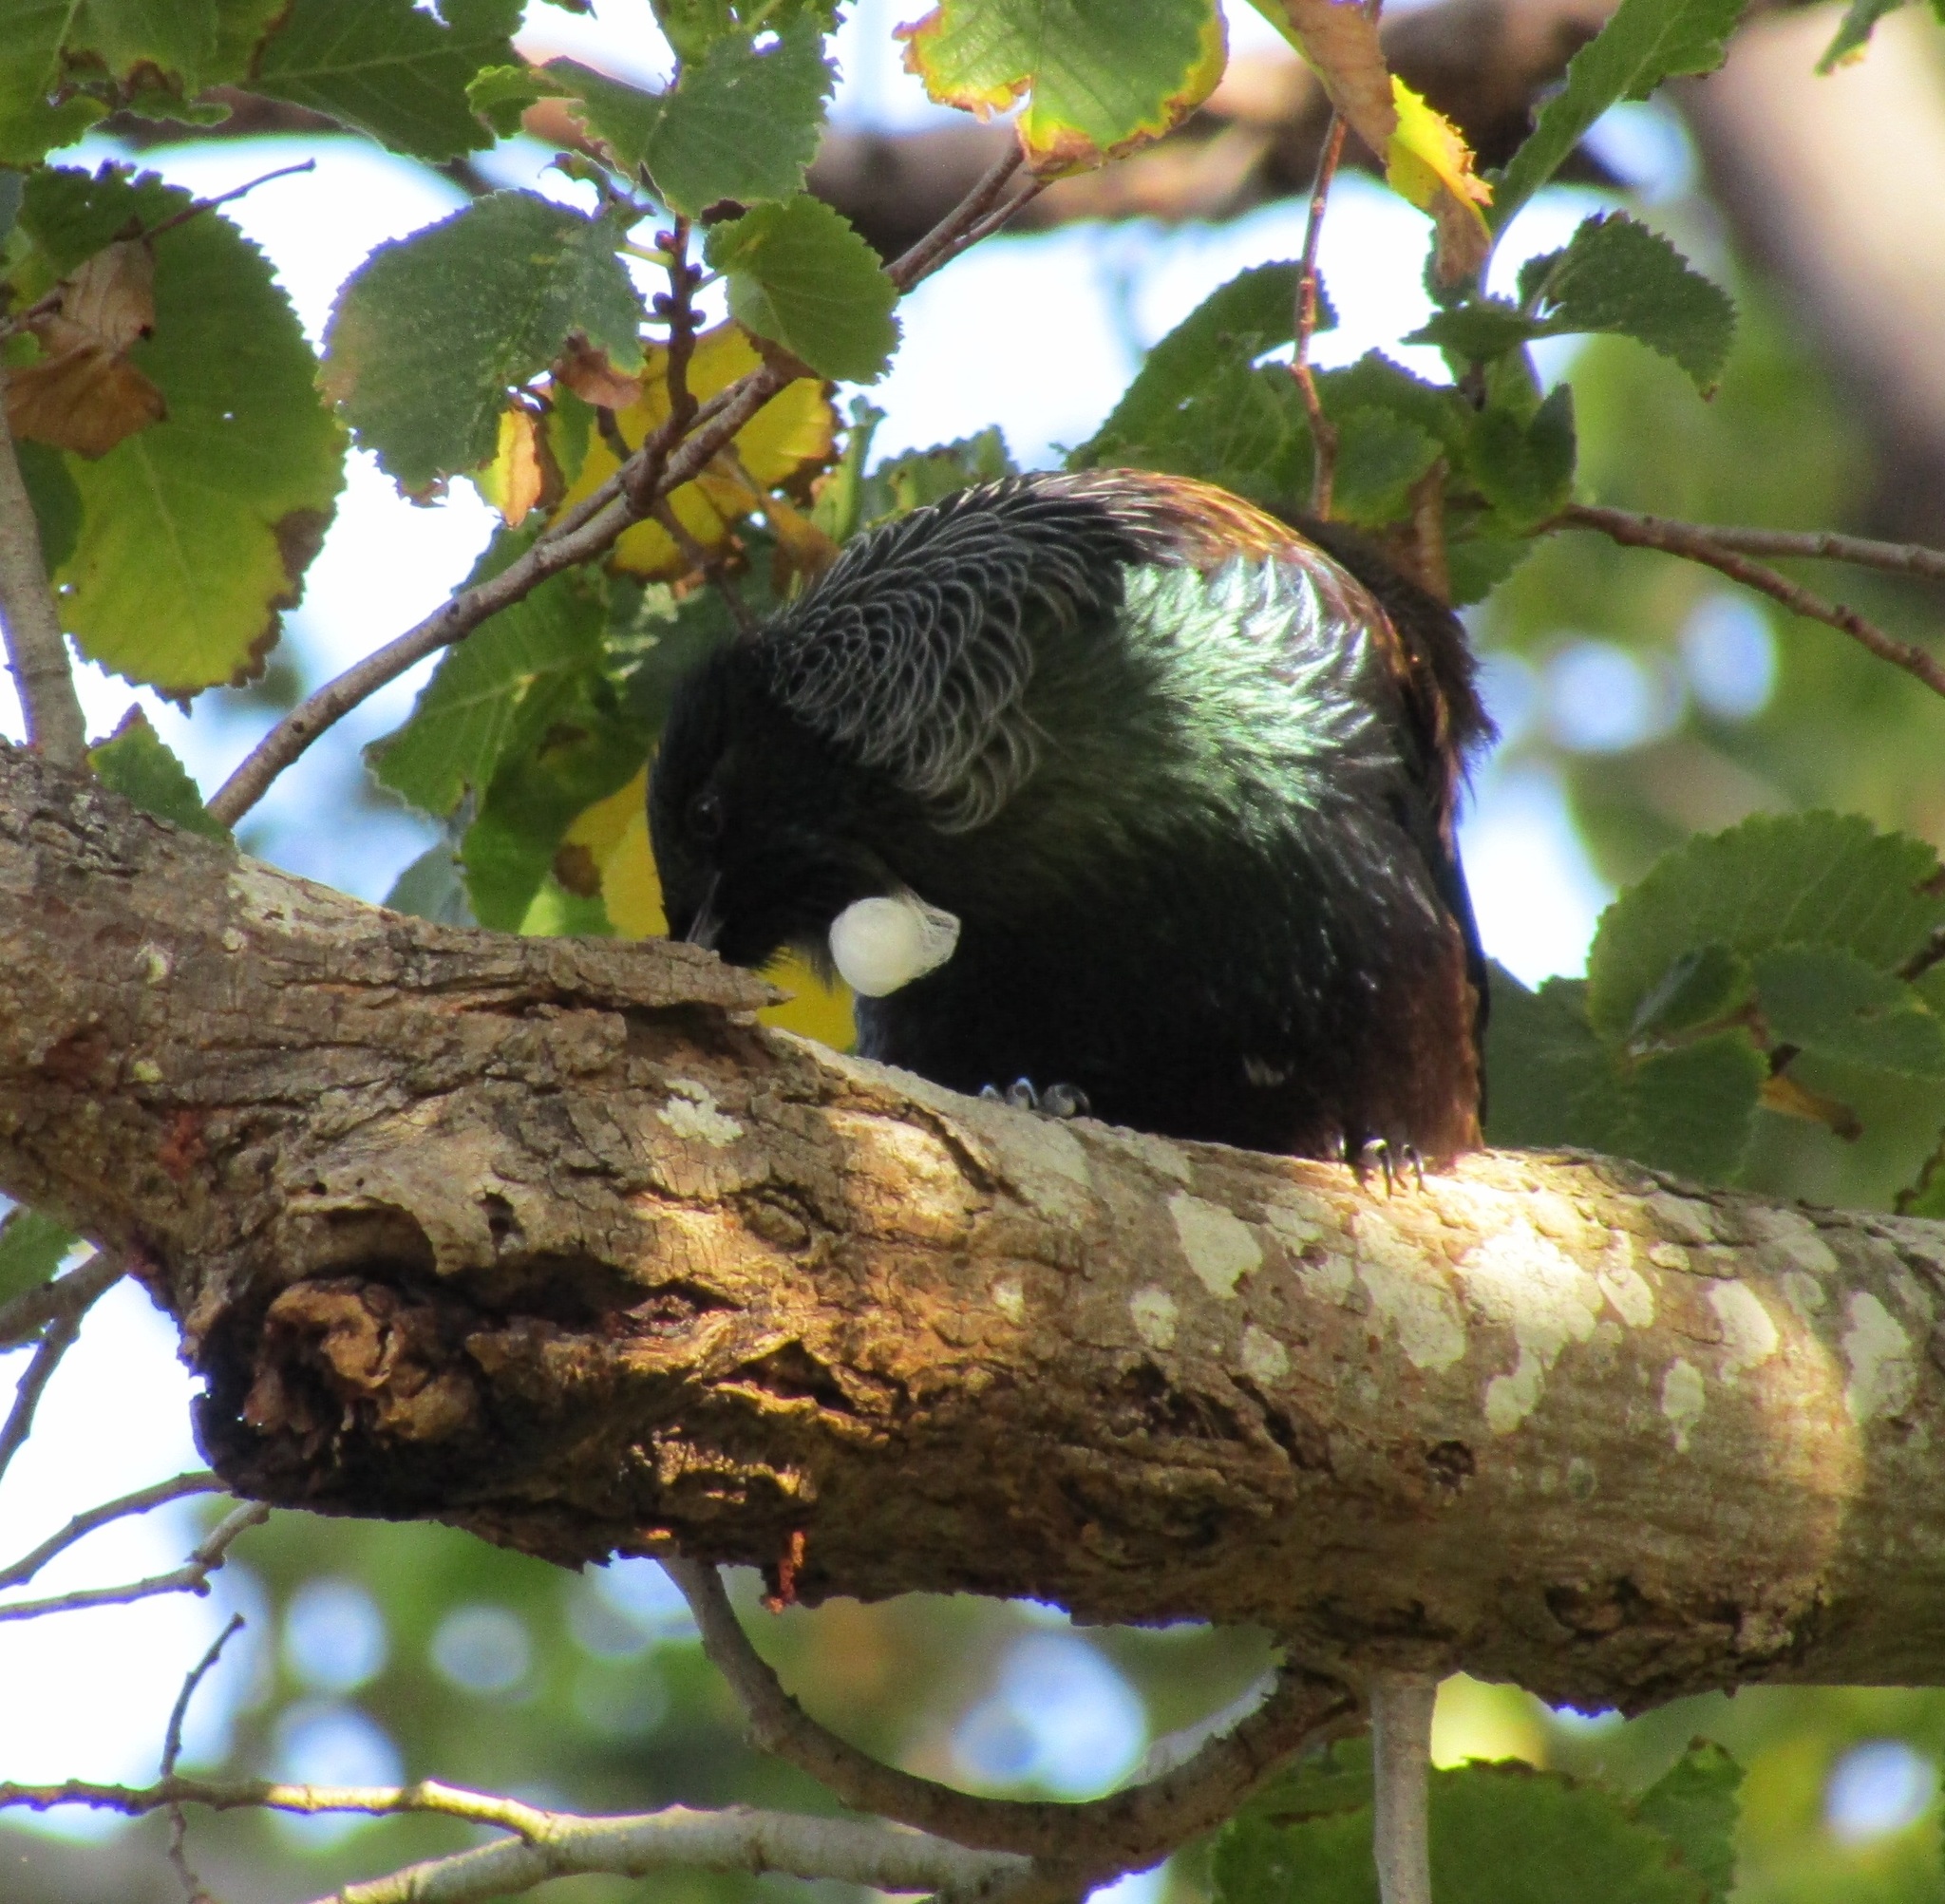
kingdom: Animalia
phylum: Chordata
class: Aves
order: Passeriformes
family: Meliphagidae
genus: Prosthemadera
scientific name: Prosthemadera novaeseelandiae
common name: Tui
